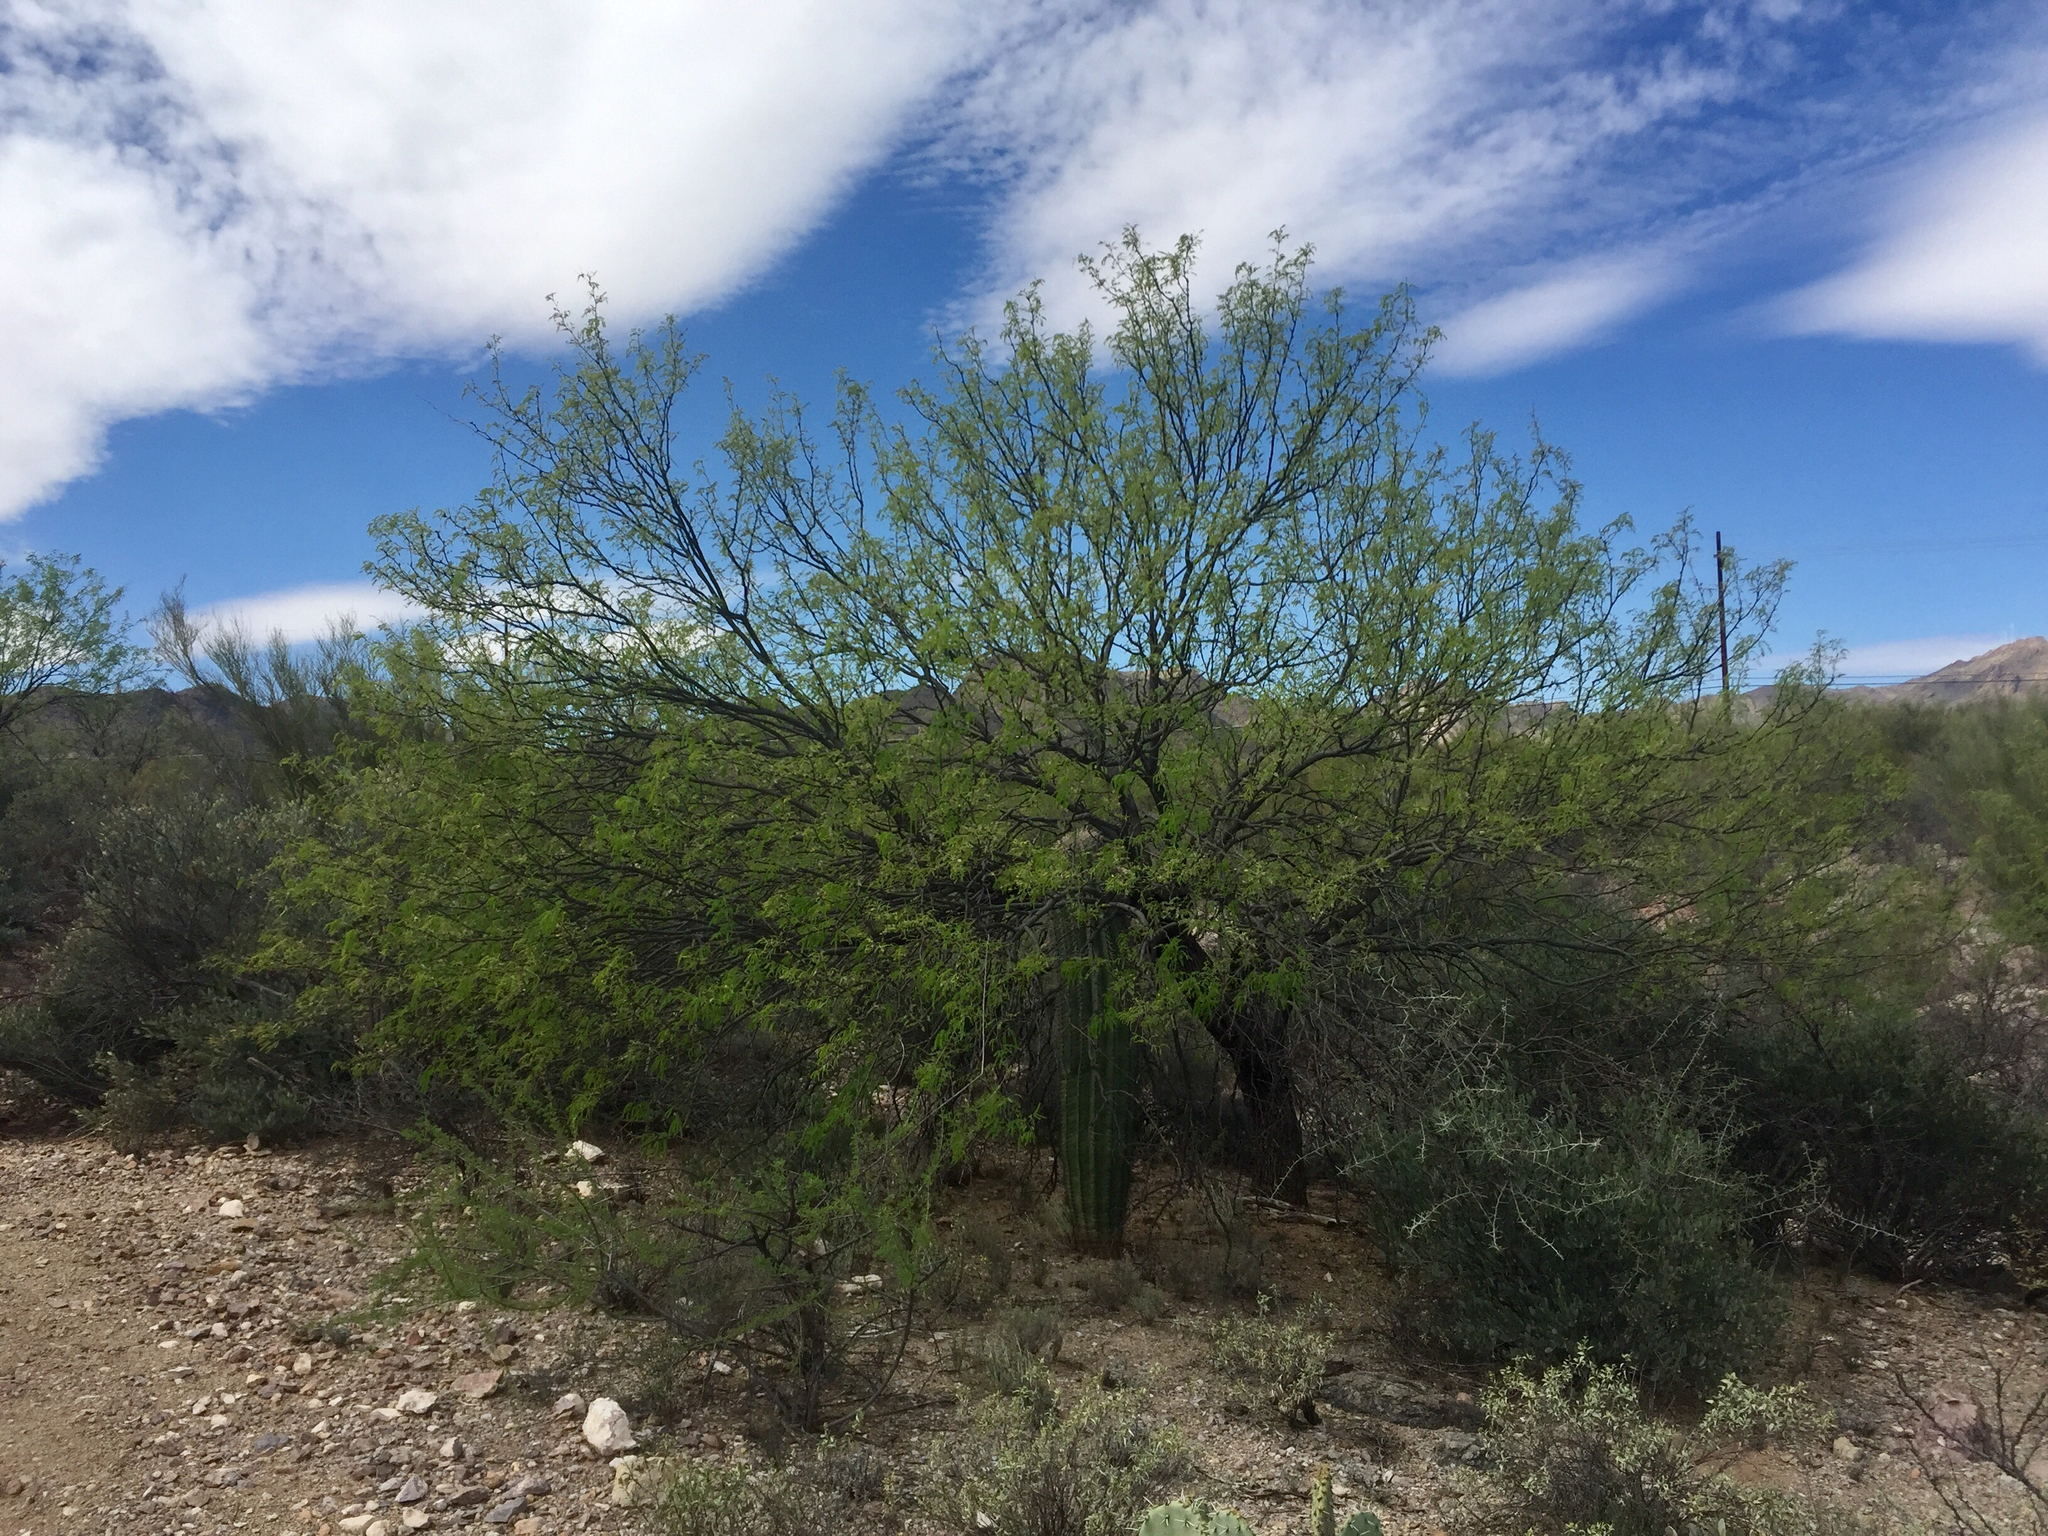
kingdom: Plantae
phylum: Tracheophyta
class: Magnoliopsida
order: Fabales
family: Fabaceae
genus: Prosopis
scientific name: Prosopis velutina
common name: Velvet mesquite
